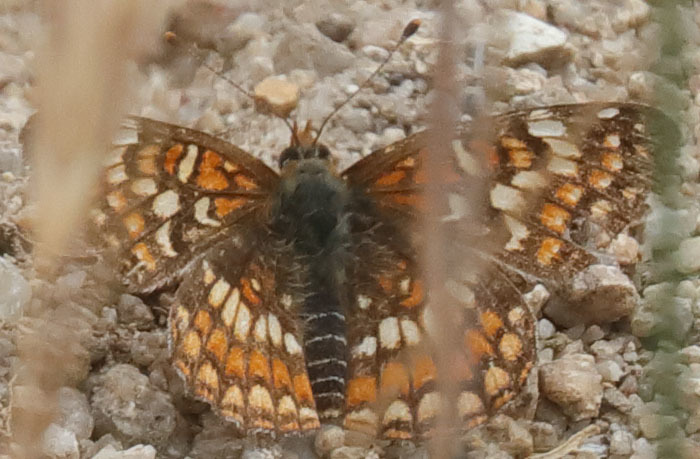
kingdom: Animalia
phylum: Arthropoda
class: Insecta
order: Lepidoptera
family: Nymphalidae
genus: Chlosyne
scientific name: Chlosyne gabbii
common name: Gabb's checkerspot
